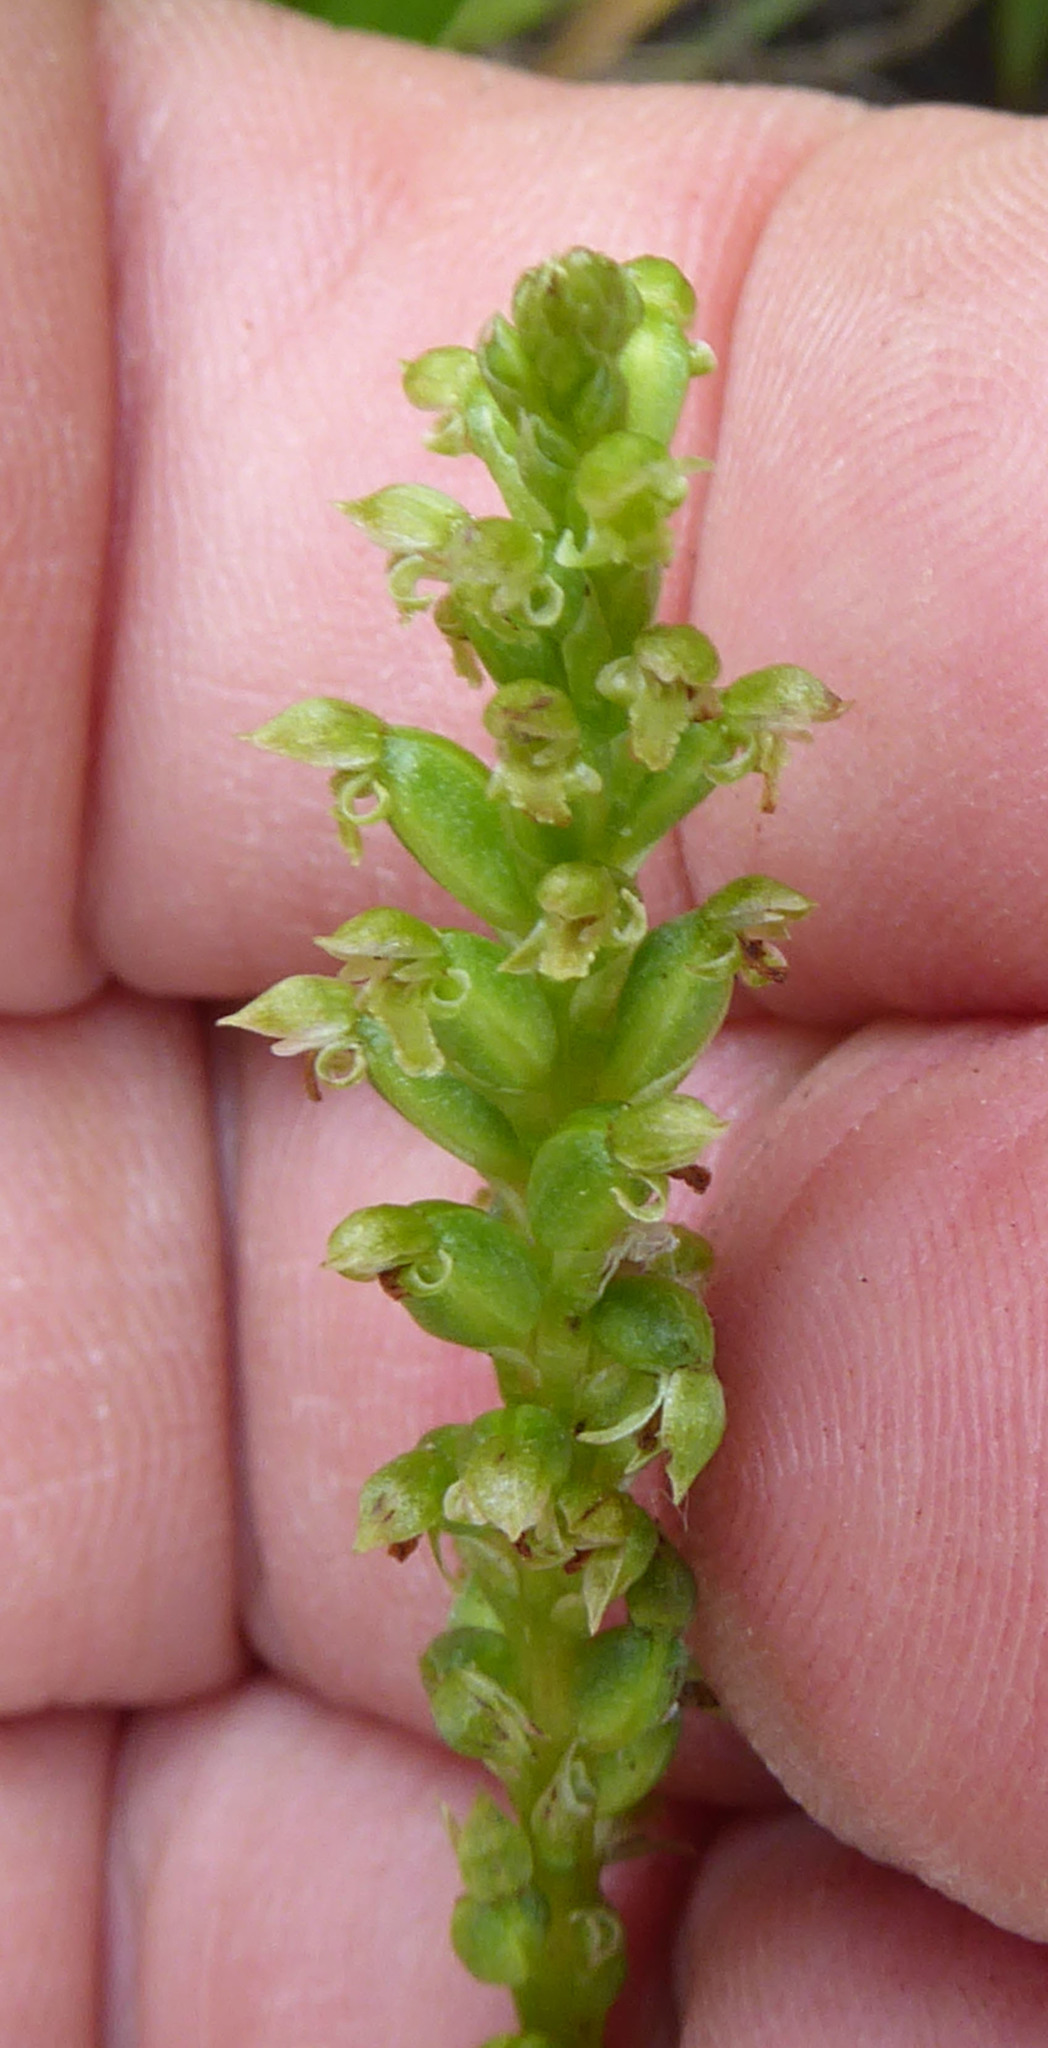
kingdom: Plantae
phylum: Tracheophyta
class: Liliopsida
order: Asparagales
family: Orchidaceae
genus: Microtis
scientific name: Microtis unifolia
